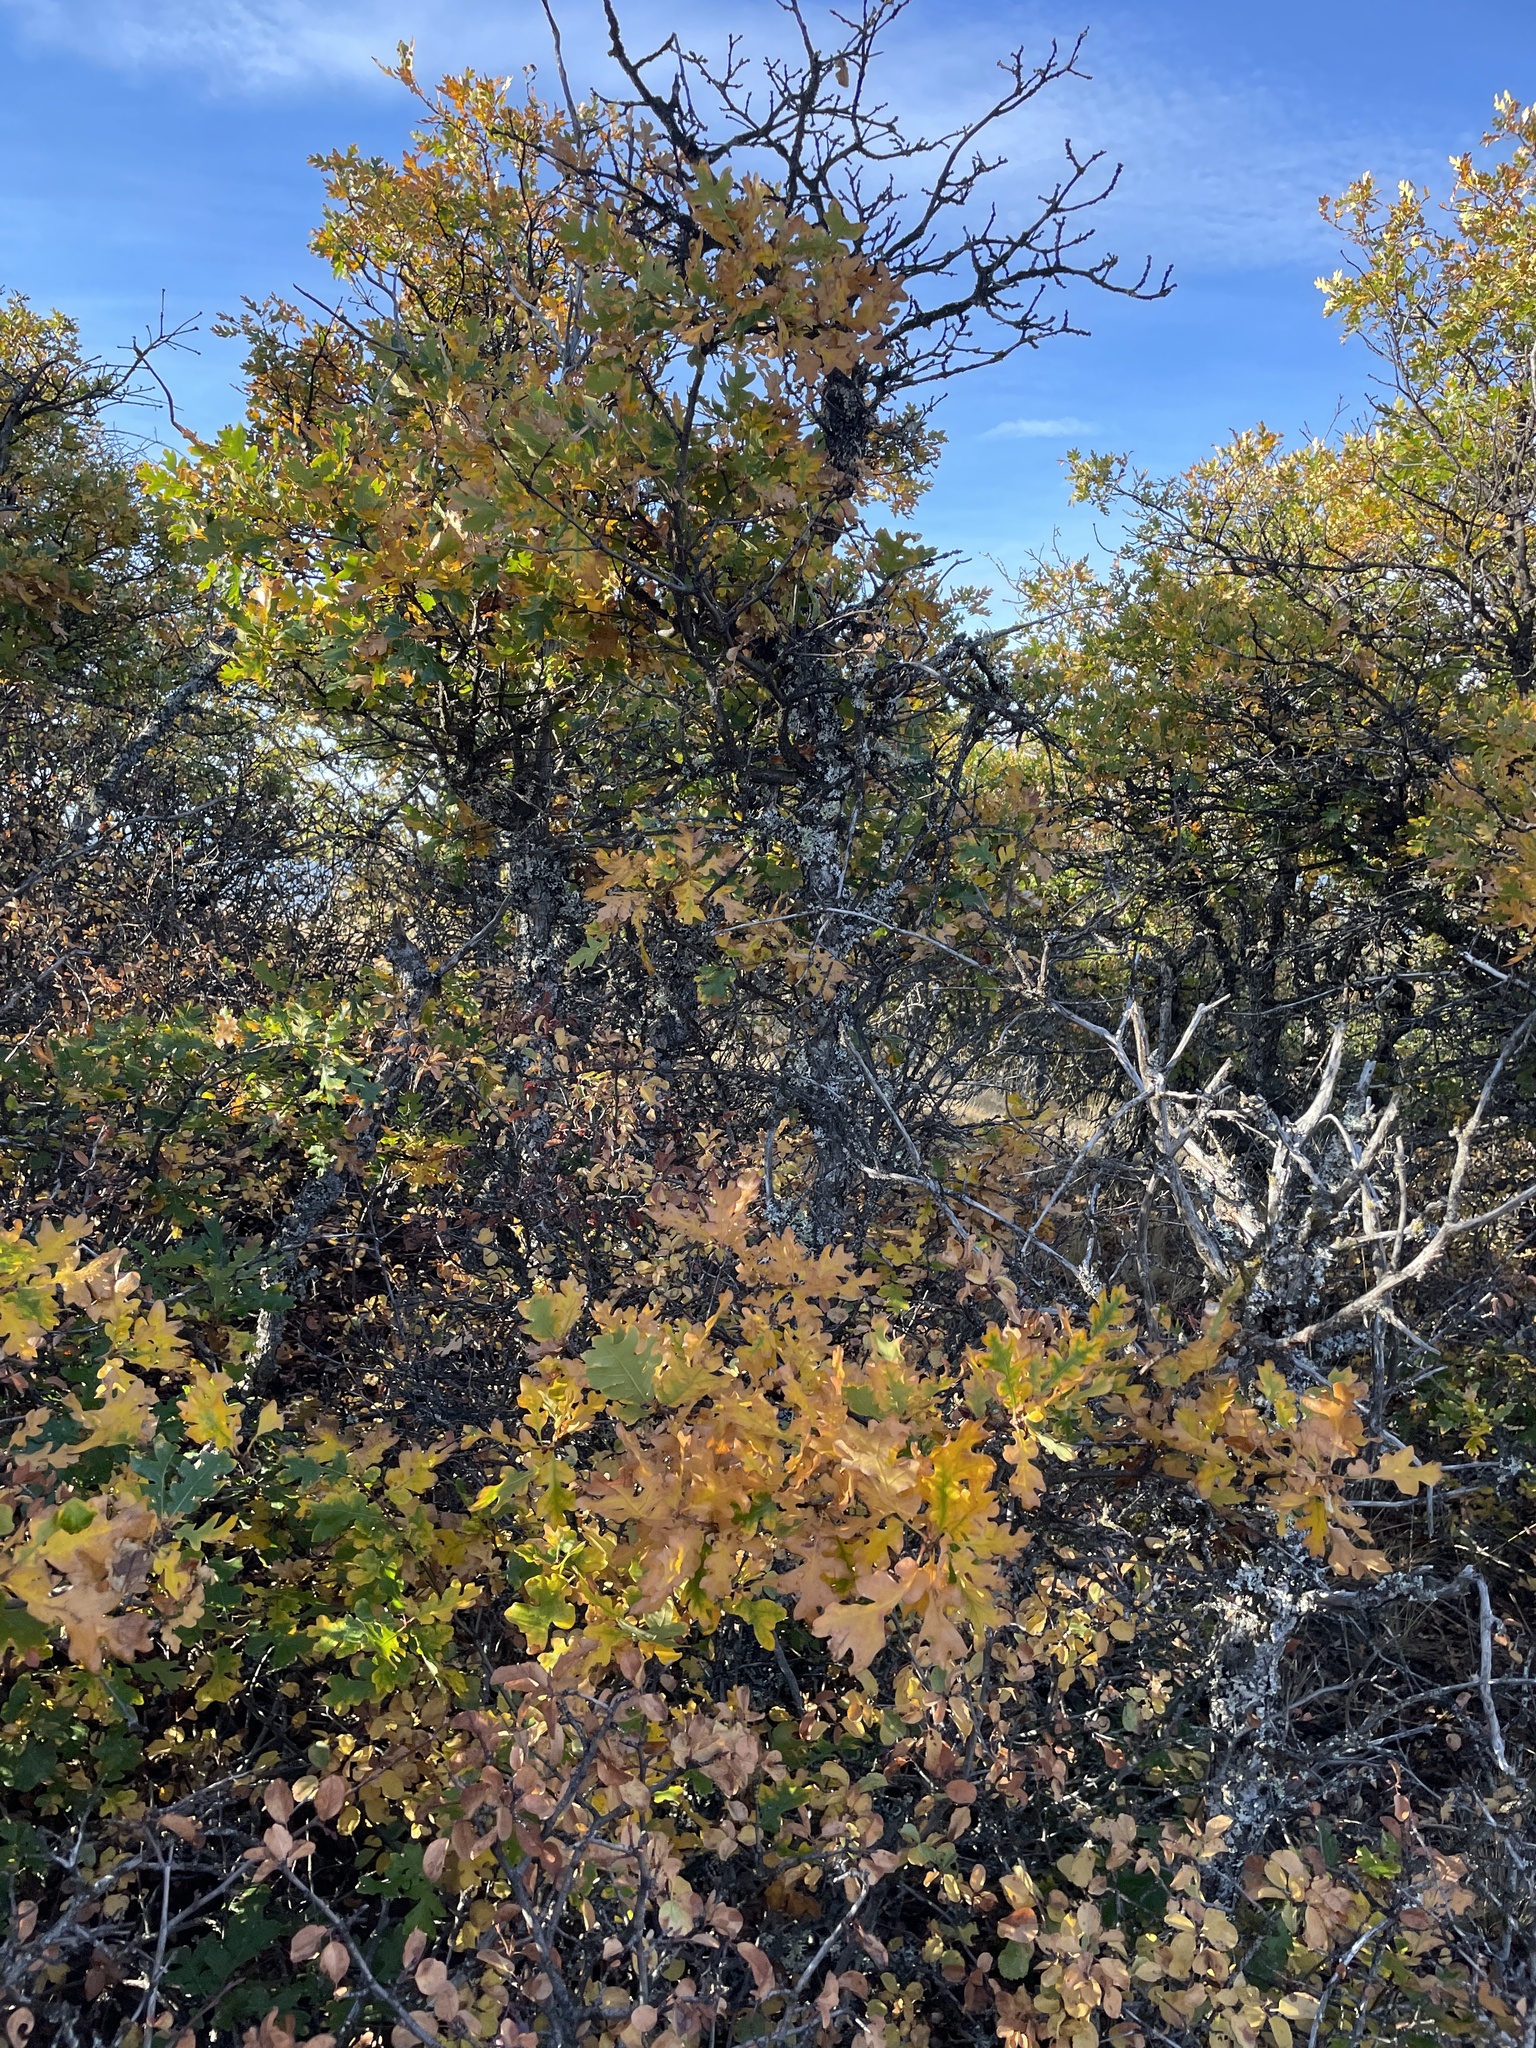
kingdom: Plantae
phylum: Tracheophyta
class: Magnoliopsida
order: Fagales
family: Fagaceae
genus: Quercus
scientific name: Quercus garryana
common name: Garry oak
